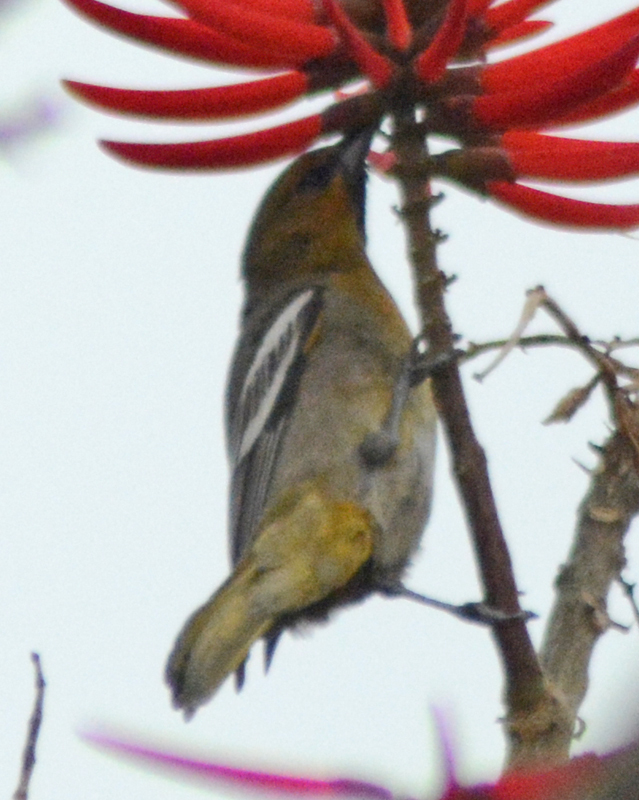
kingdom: Animalia
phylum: Chordata
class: Aves
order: Passeriformes
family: Icteridae
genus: Icterus
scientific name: Icterus abeillei
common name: Black-backed oriole
